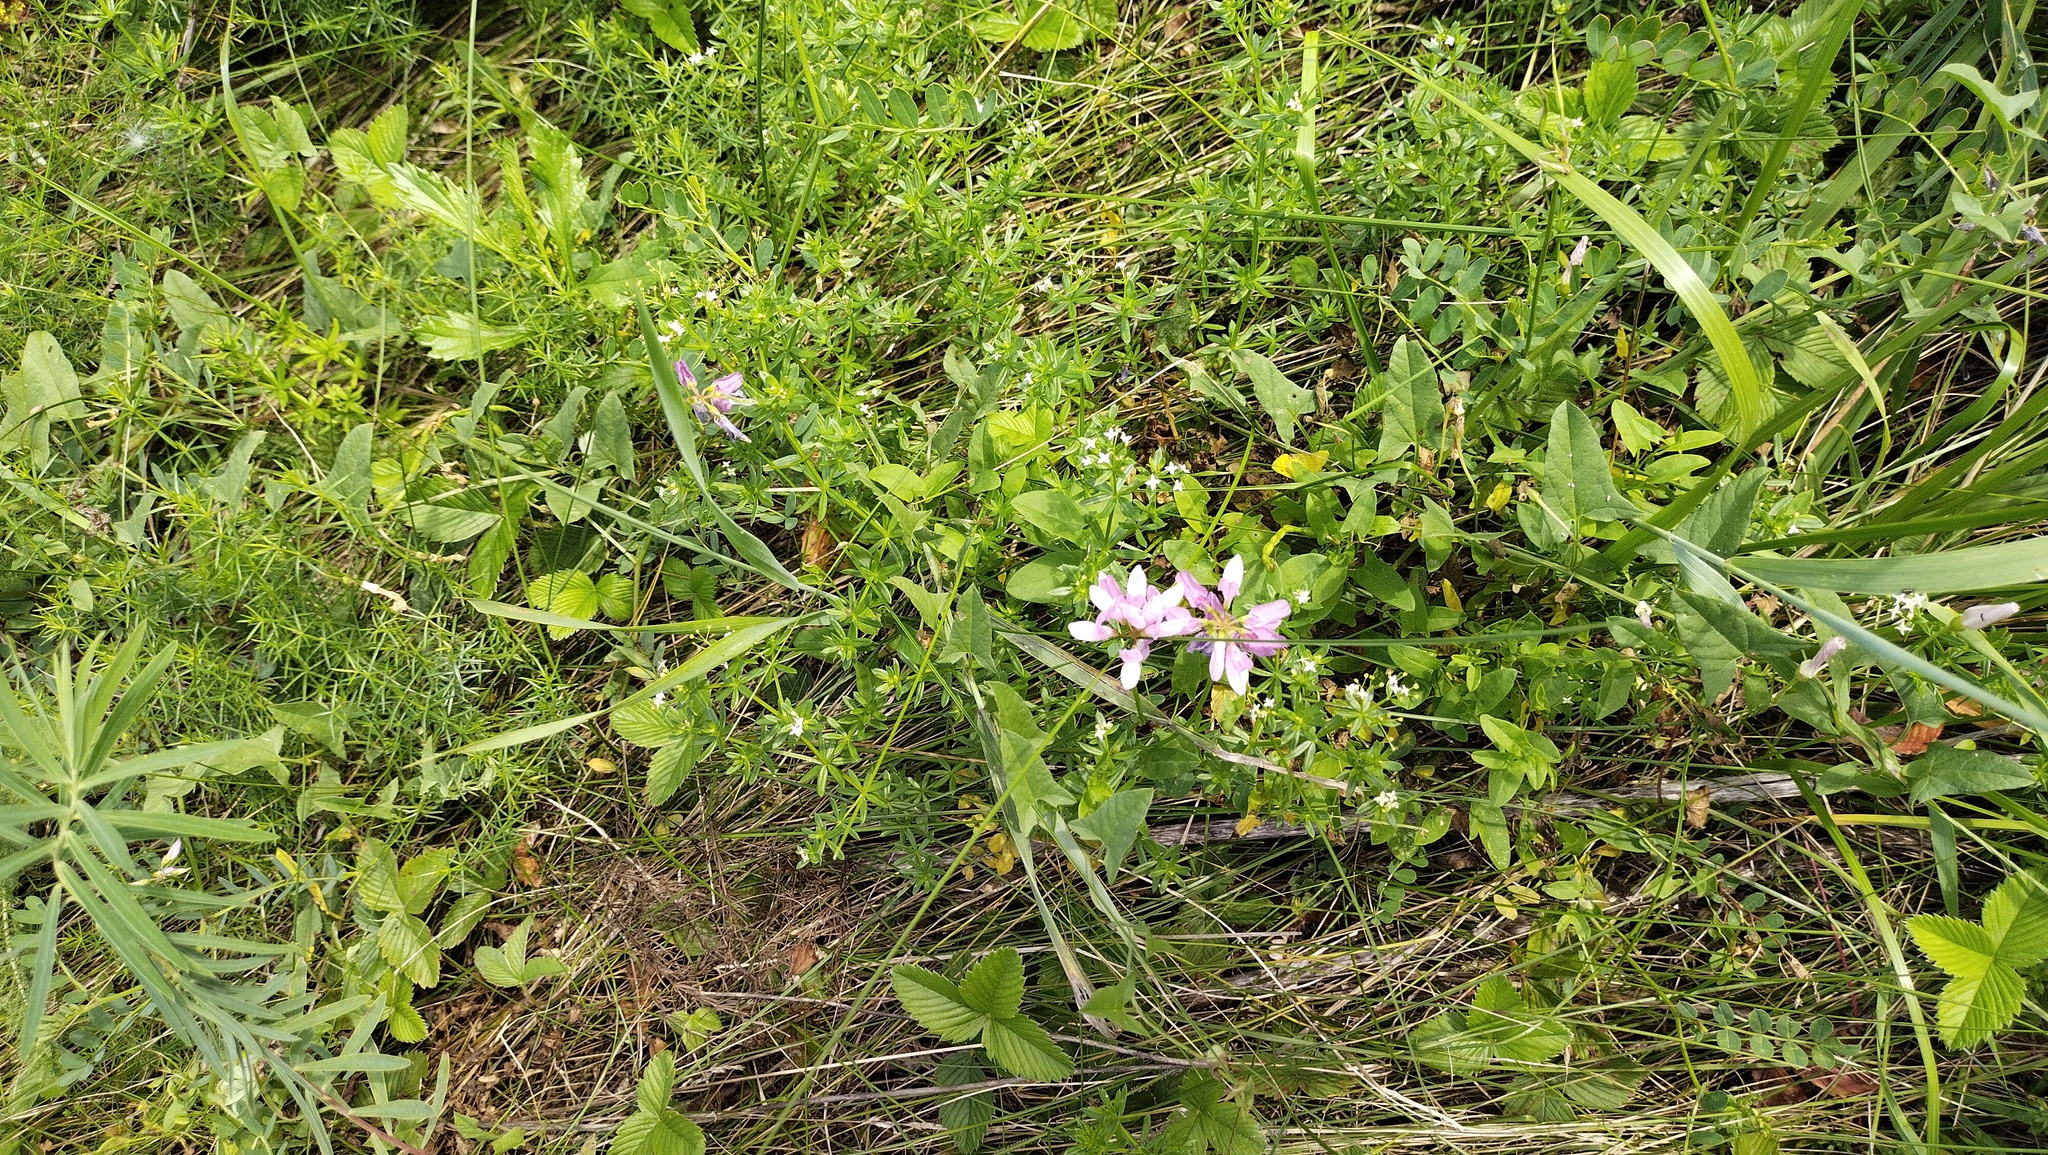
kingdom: Plantae
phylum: Tracheophyta
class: Magnoliopsida
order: Fabales
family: Fabaceae
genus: Coronilla
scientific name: Coronilla varia
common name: Crownvetch
